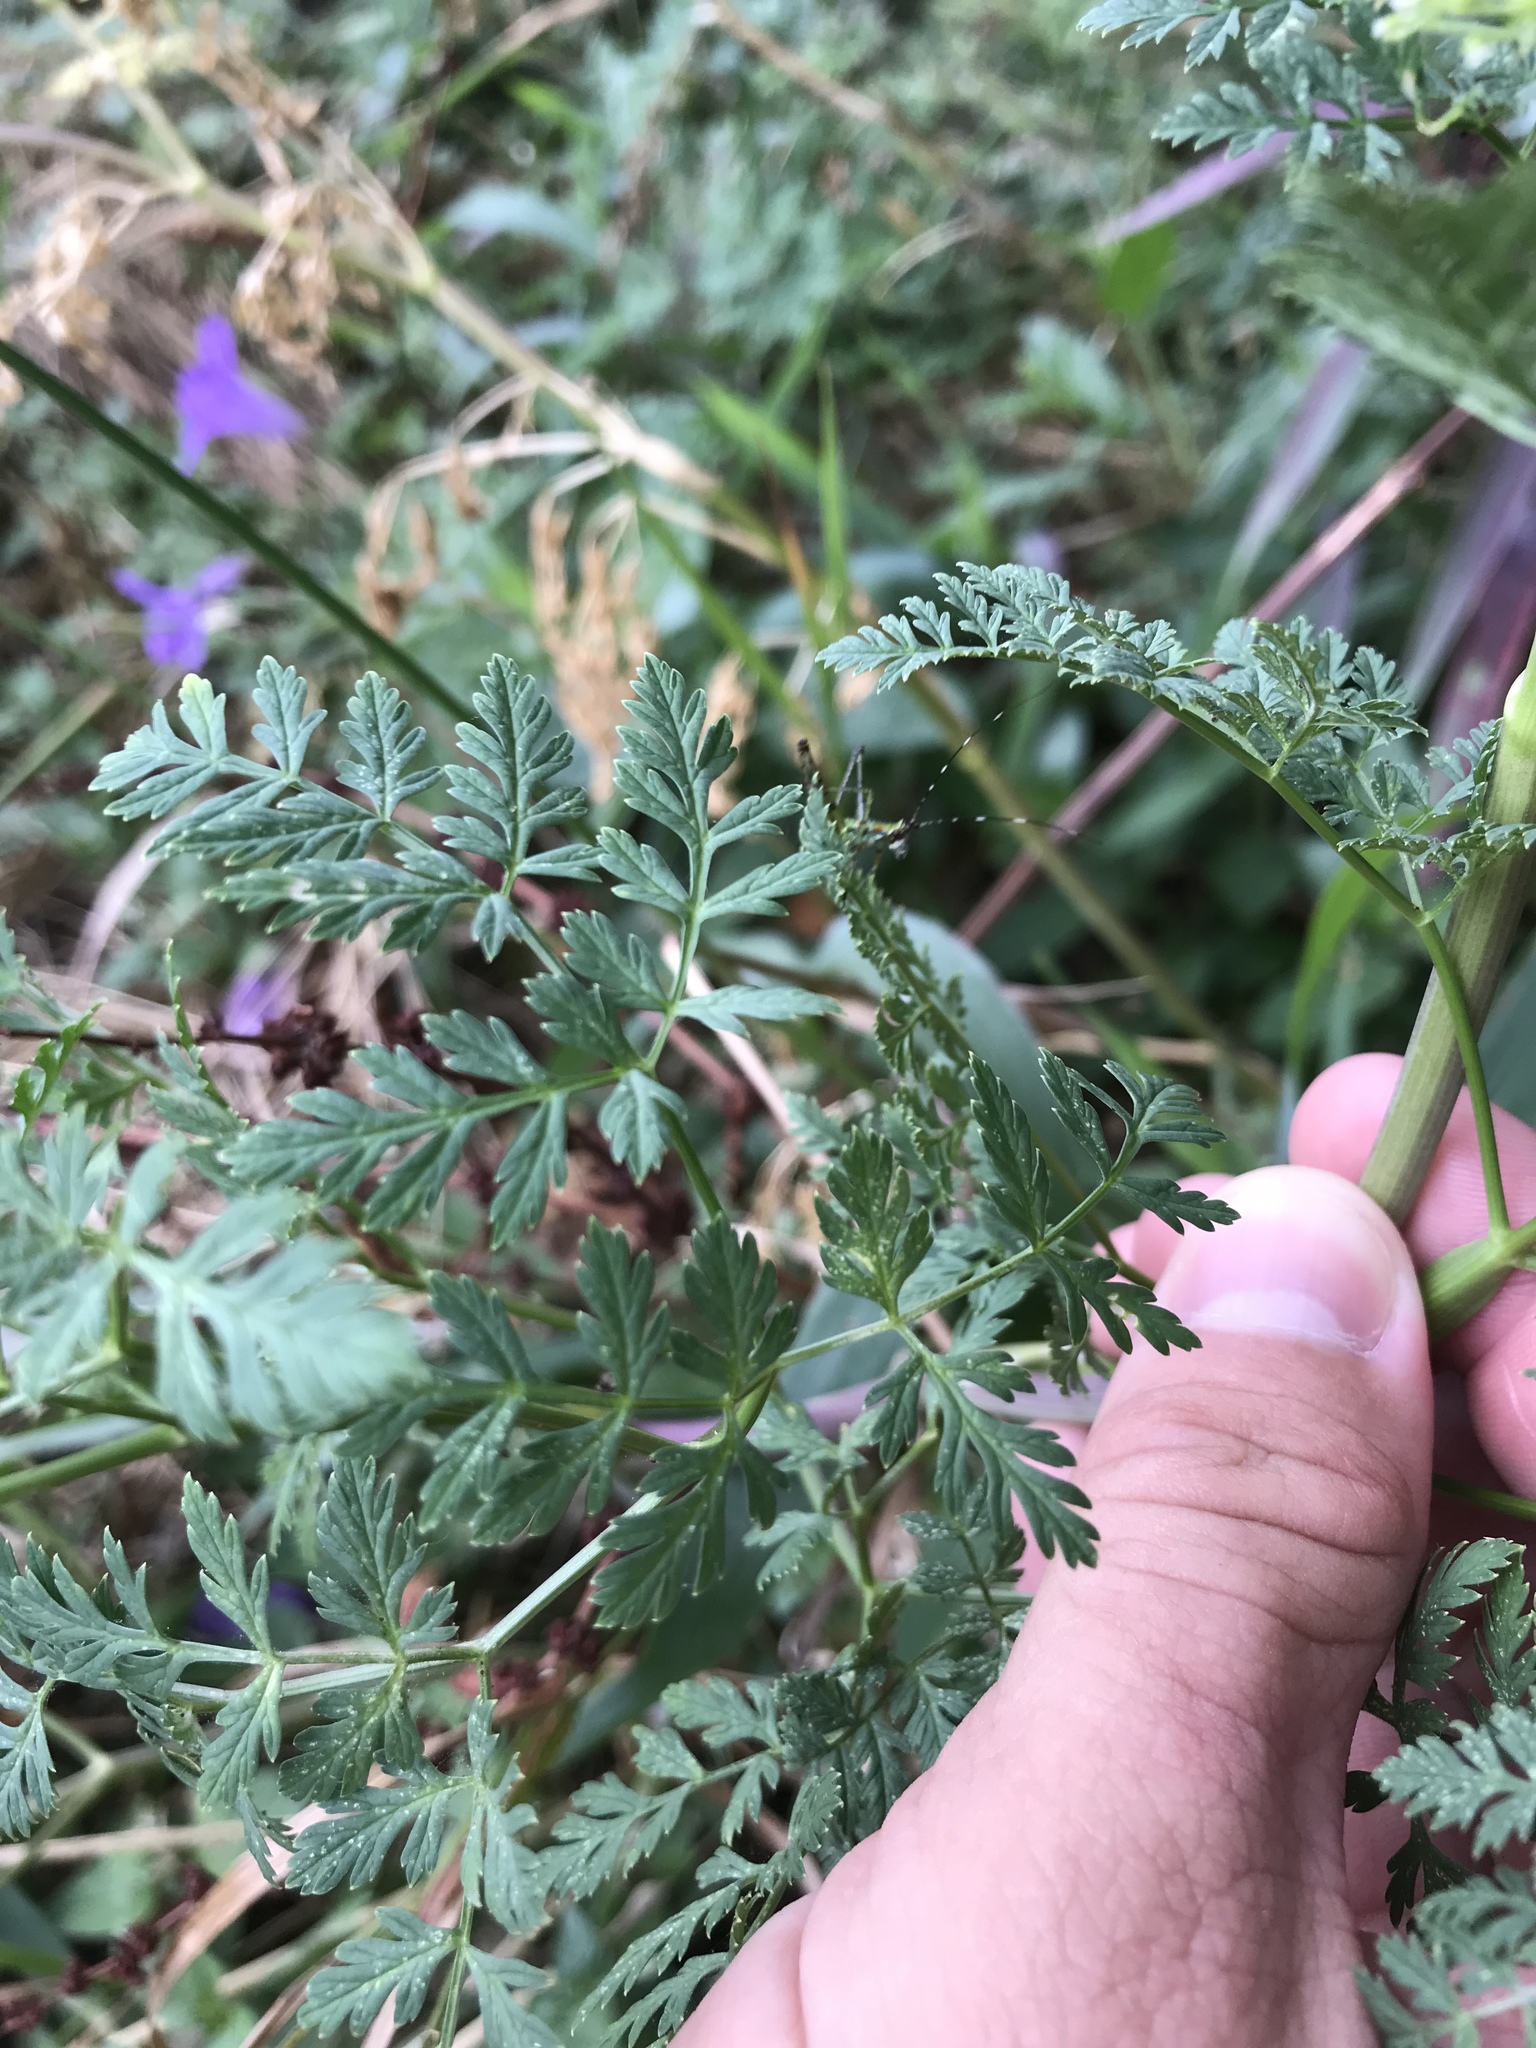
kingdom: Plantae
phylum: Tracheophyta
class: Magnoliopsida
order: Apiales
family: Apiaceae
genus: Conium
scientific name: Conium maculatum
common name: Hemlock
